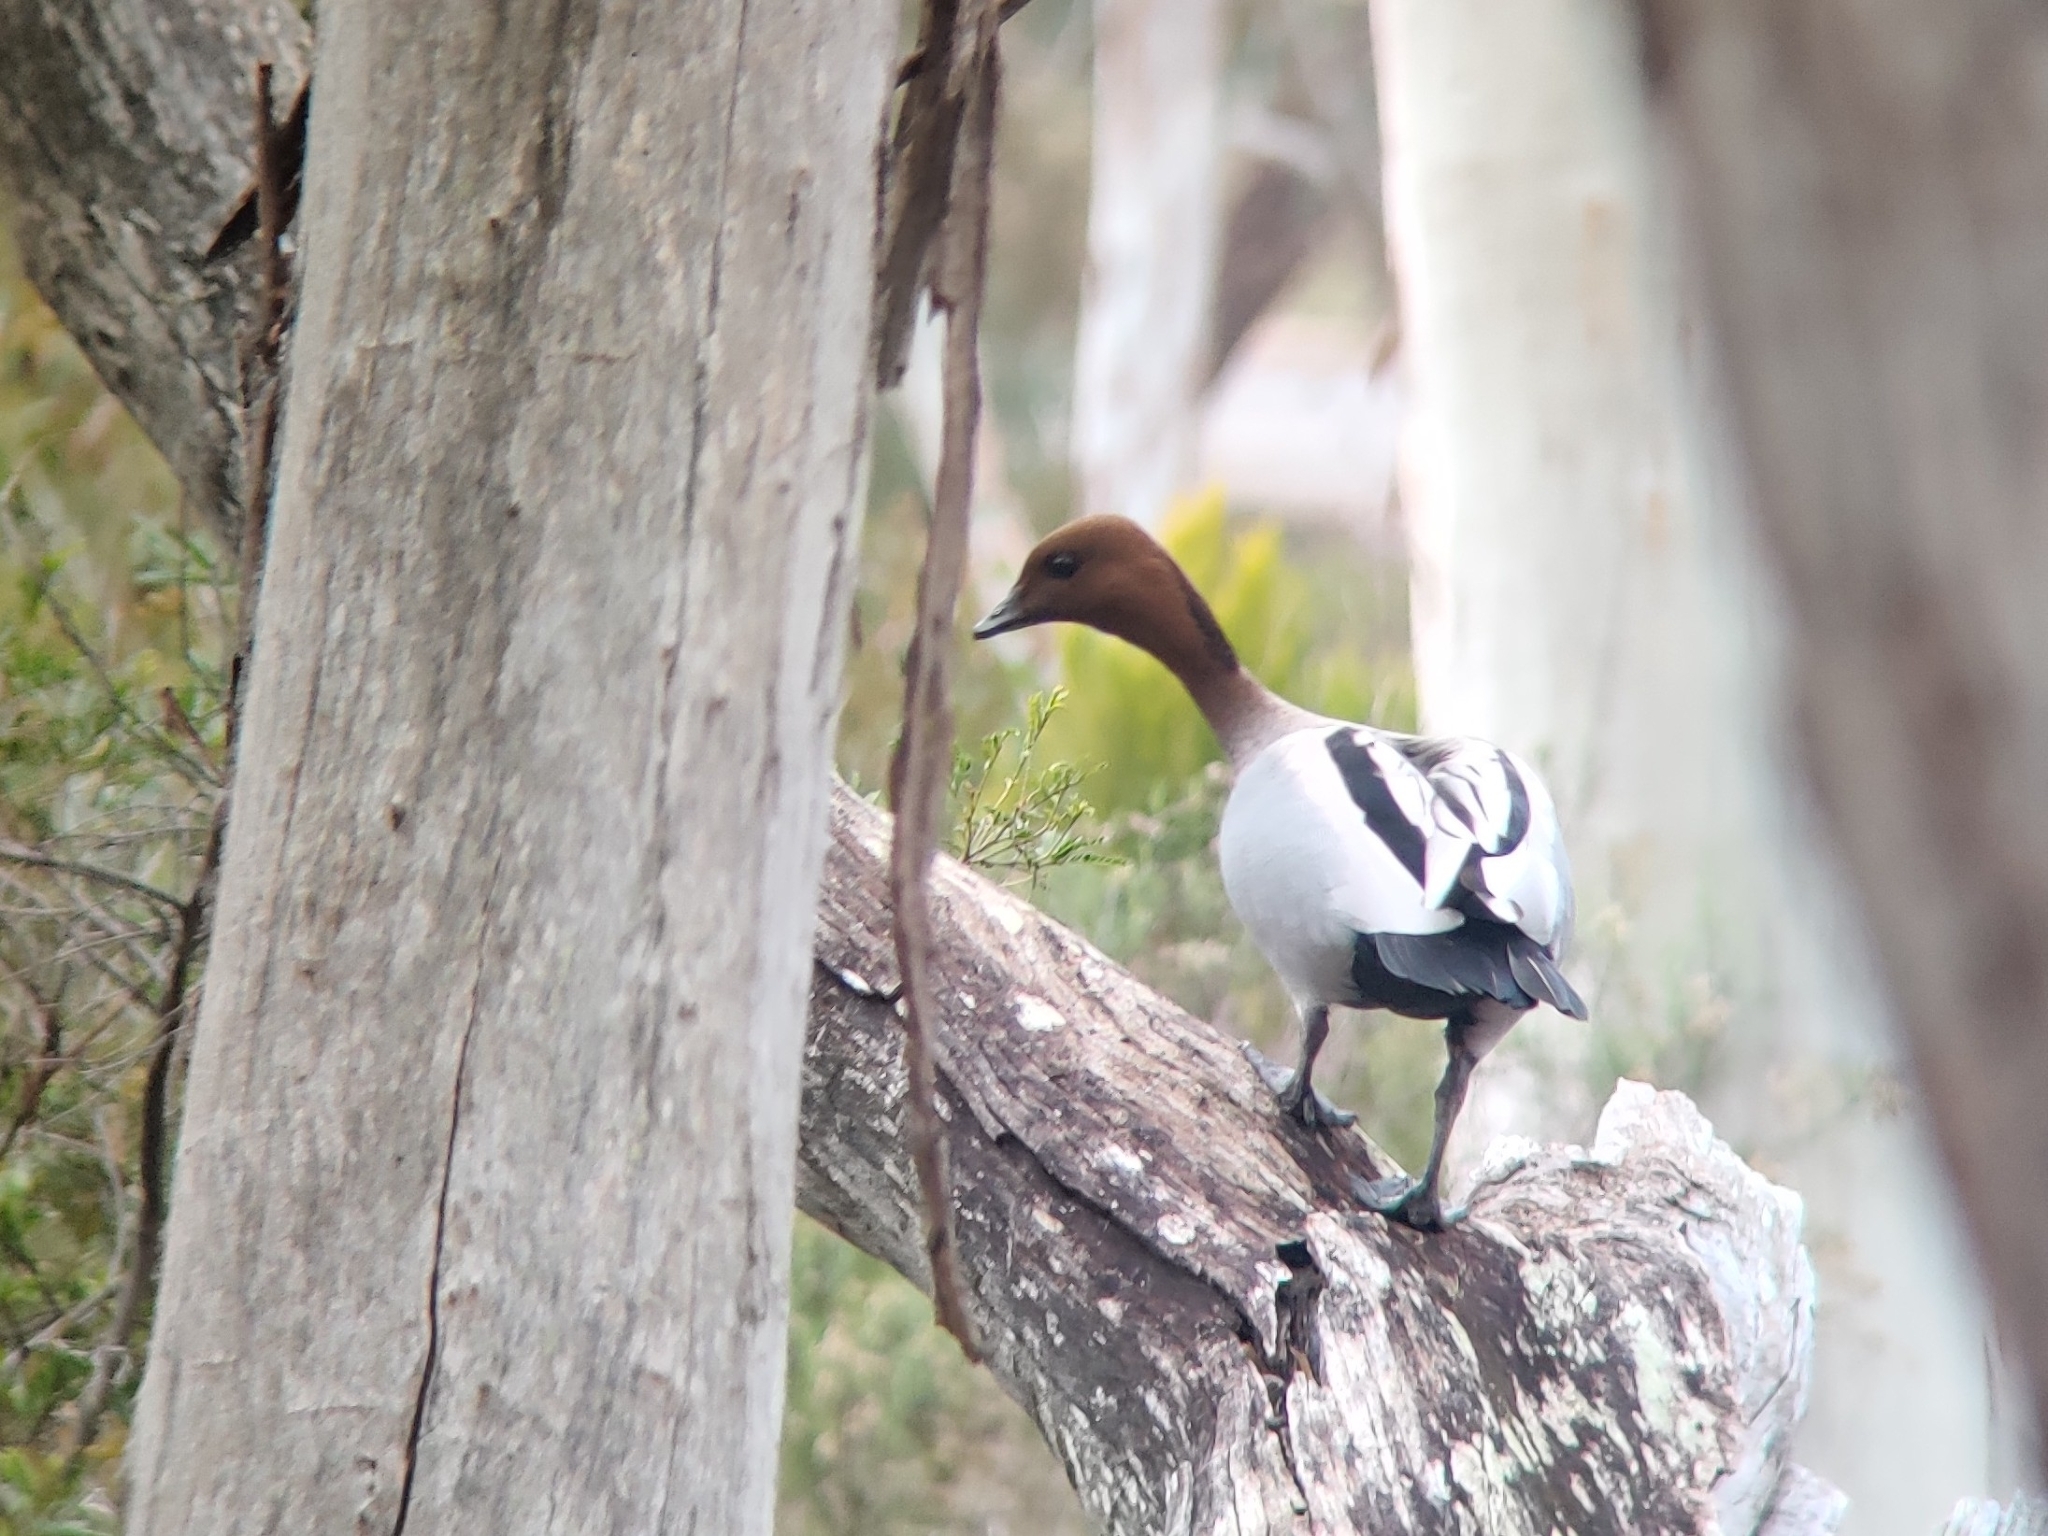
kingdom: Animalia
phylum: Chordata
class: Aves
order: Anseriformes
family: Anatidae
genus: Chenonetta
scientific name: Chenonetta jubata
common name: Maned duck
